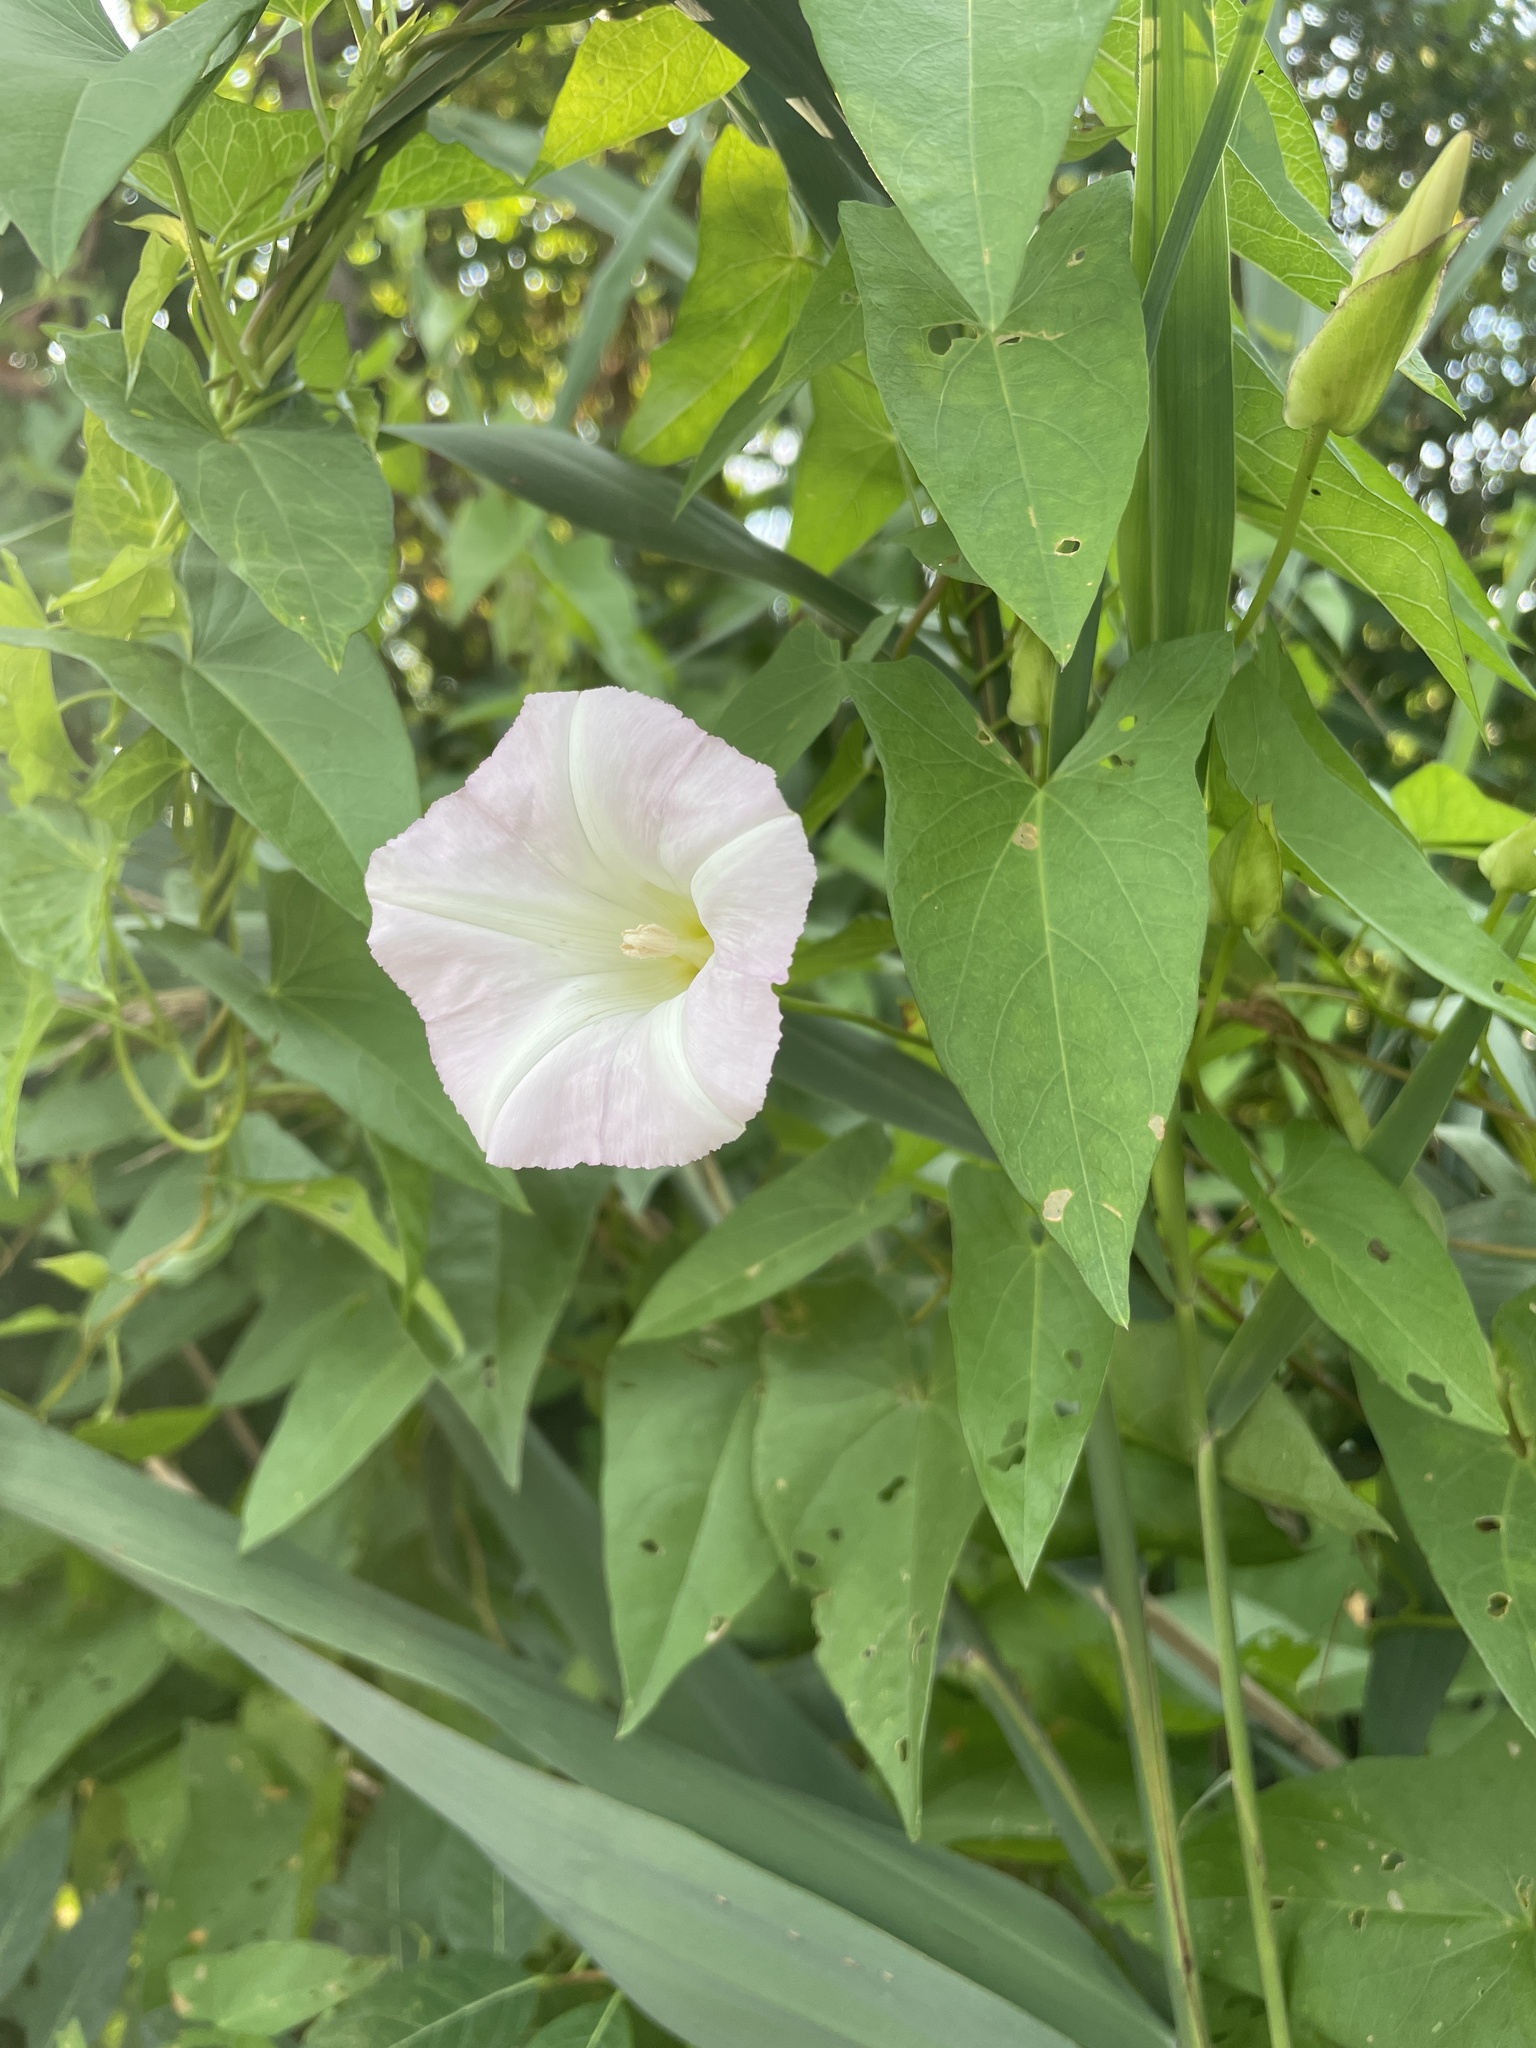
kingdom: Plantae
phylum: Tracheophyta
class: Magnoliopsida
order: Solanales
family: Convolvulaceae
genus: Calystegia
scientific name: Calystegia sepium
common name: Hedge bindweed
